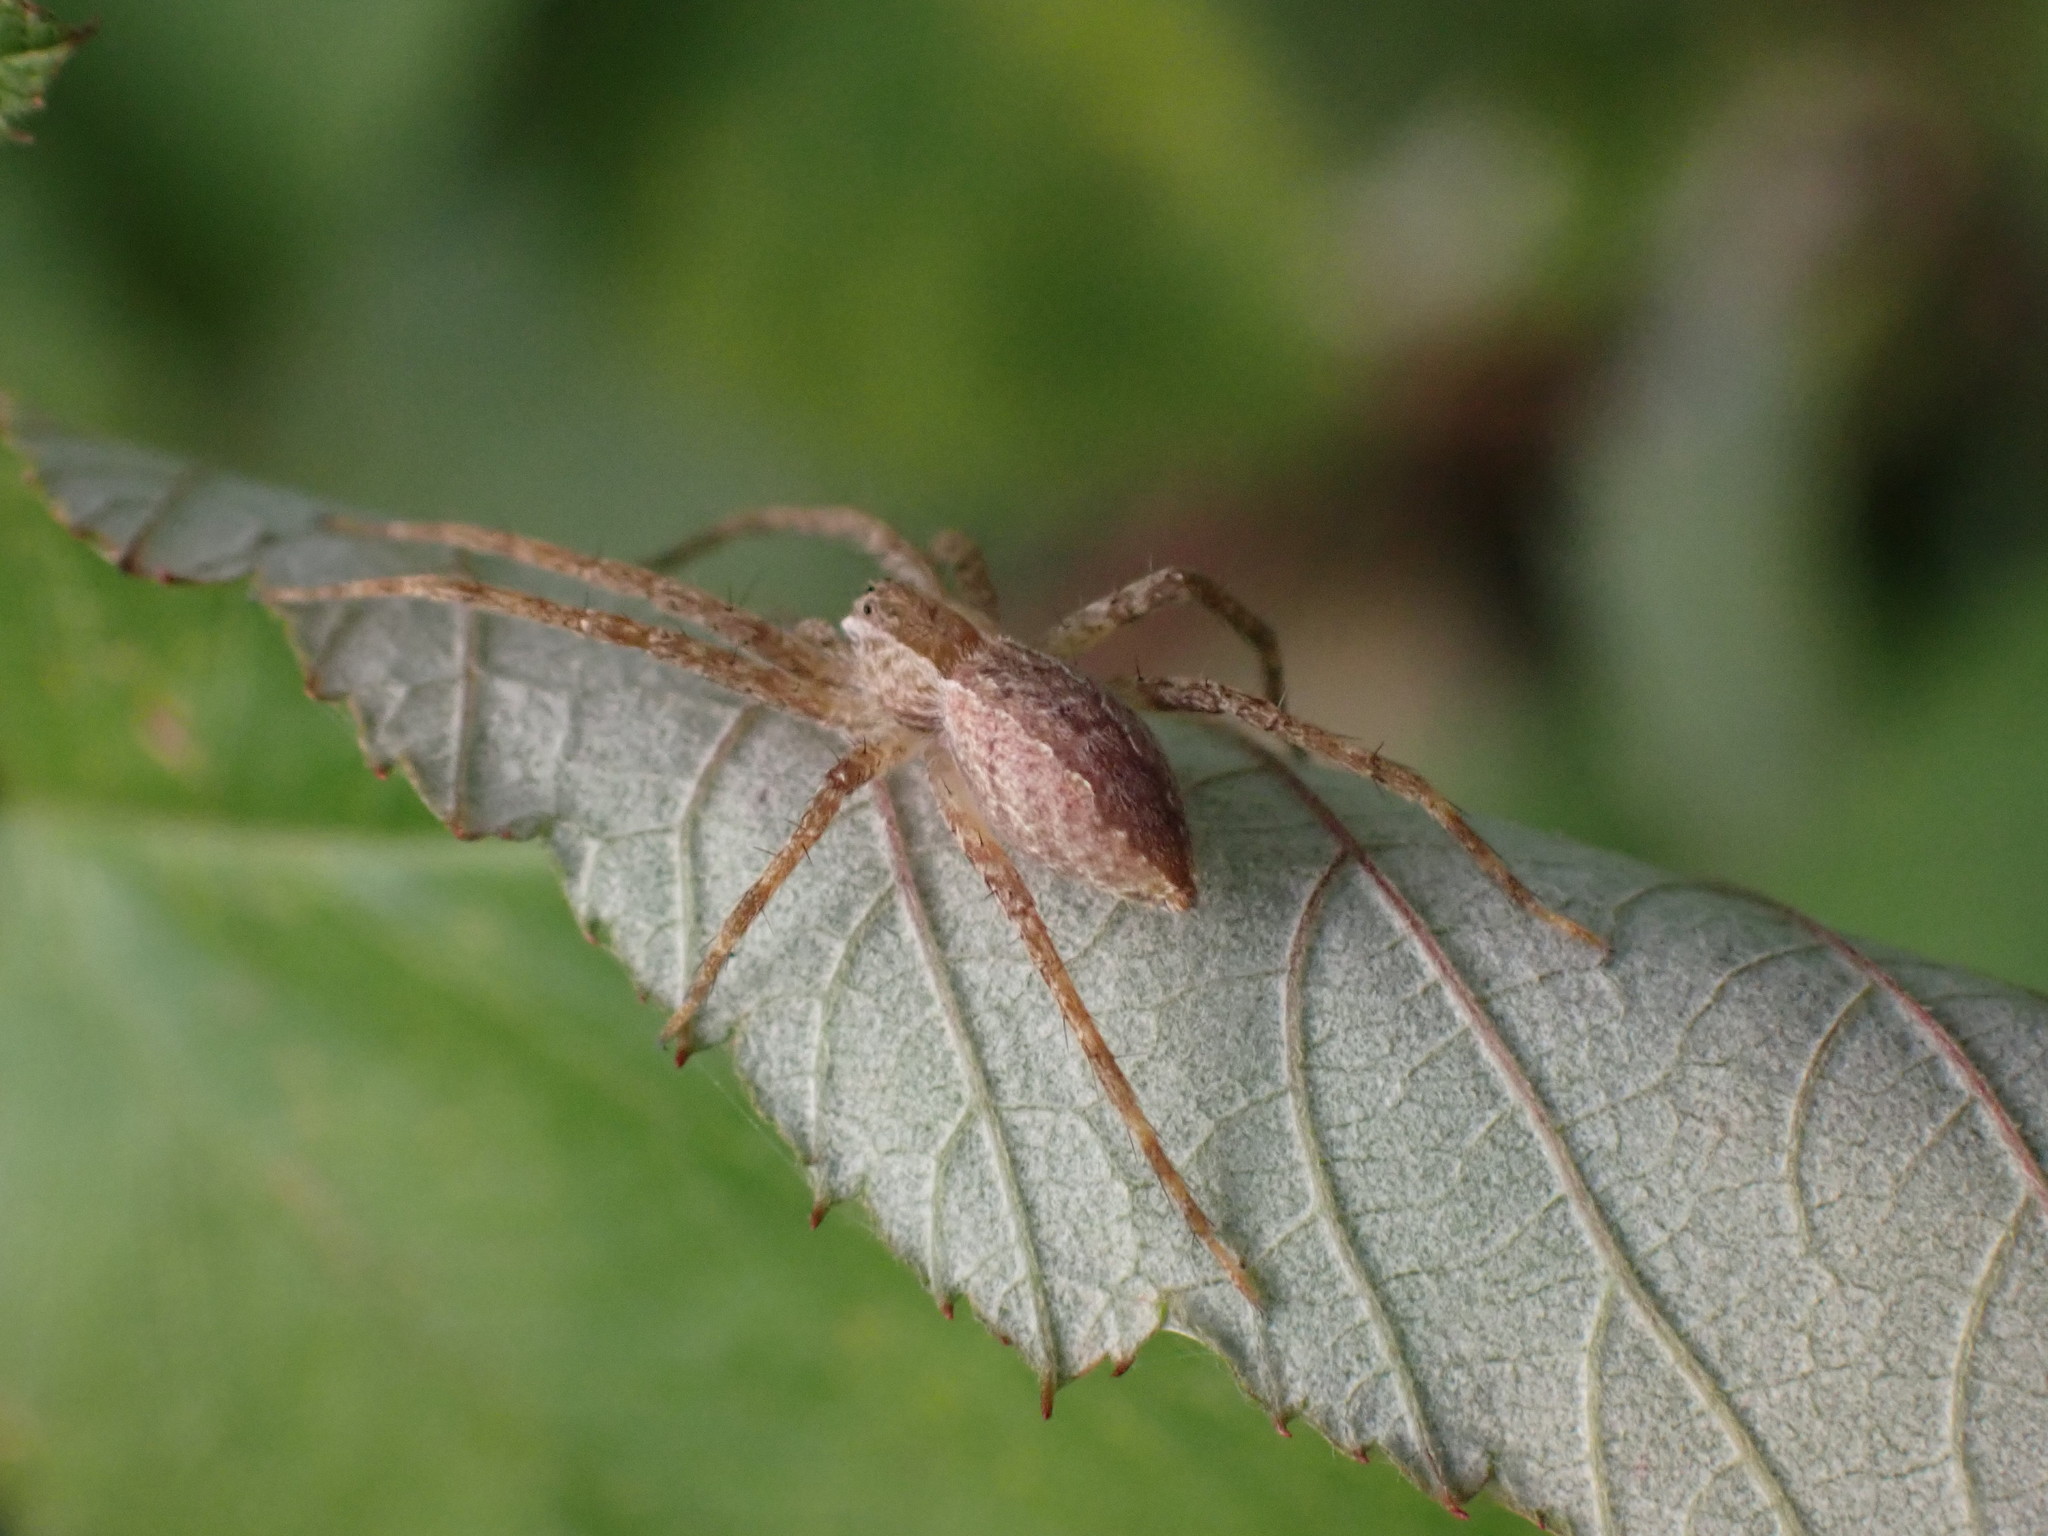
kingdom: Animalia
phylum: Arthropoda
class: Arachnida
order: Araneae
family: Pisauridae
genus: Pisaurina
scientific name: Pisaurina mira
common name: American nursery web spider
